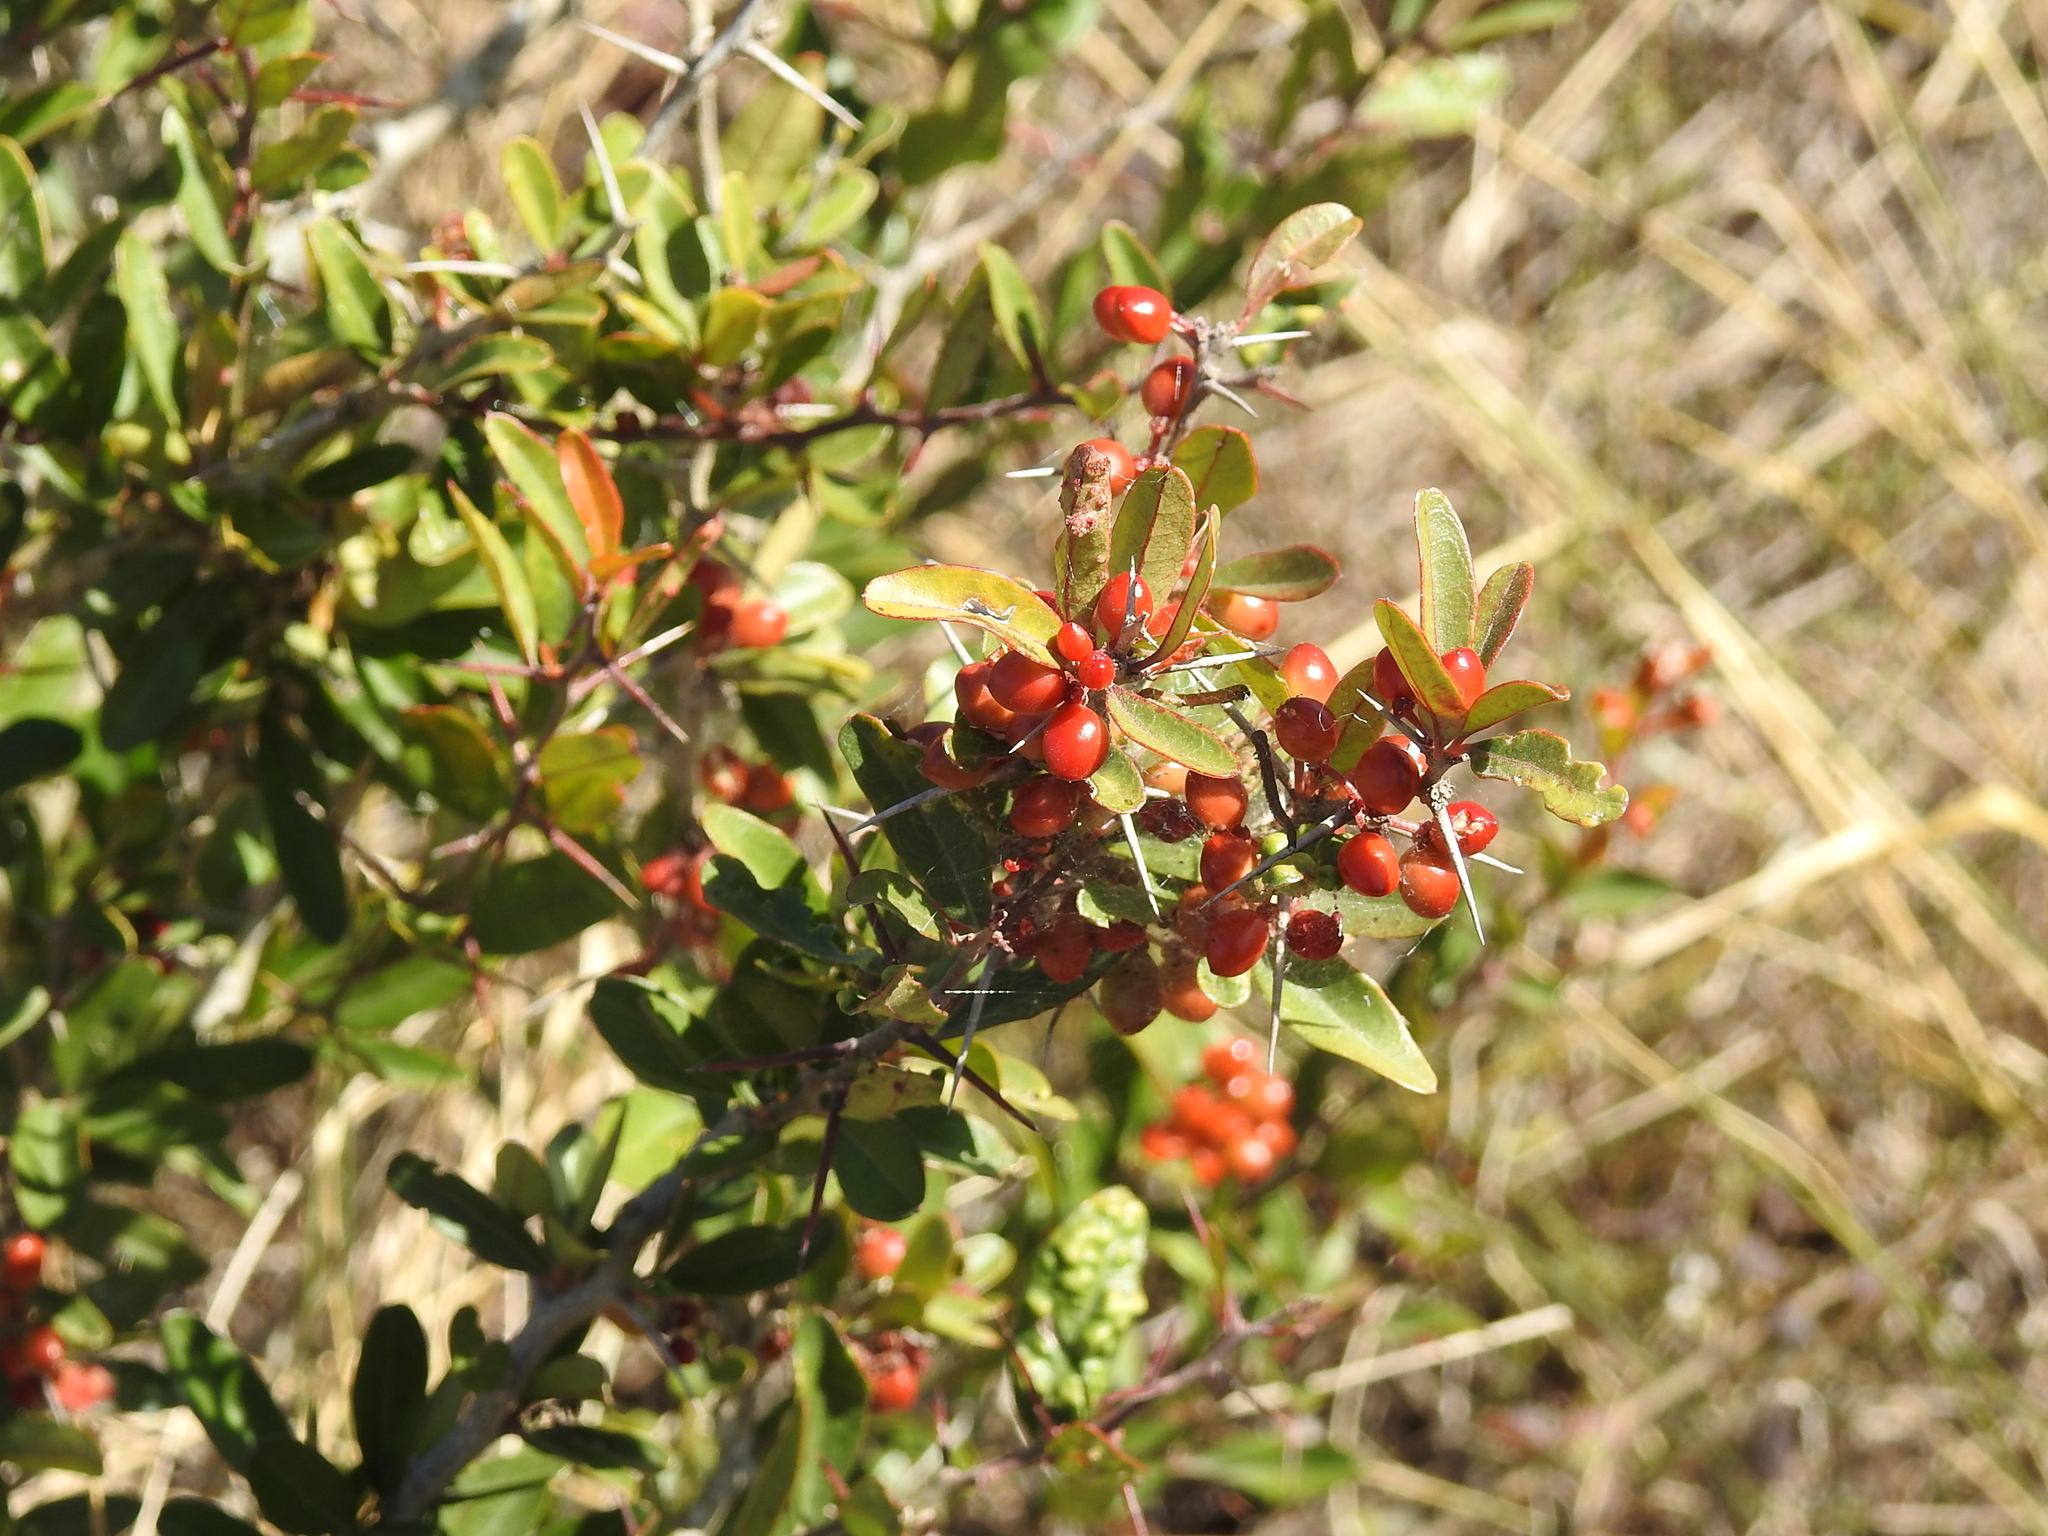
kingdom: Plantae
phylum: Tracheophyta
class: Magnoliopsida
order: Sapindales
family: Simaroubaceae
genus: Castela
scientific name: Castela tweediei
